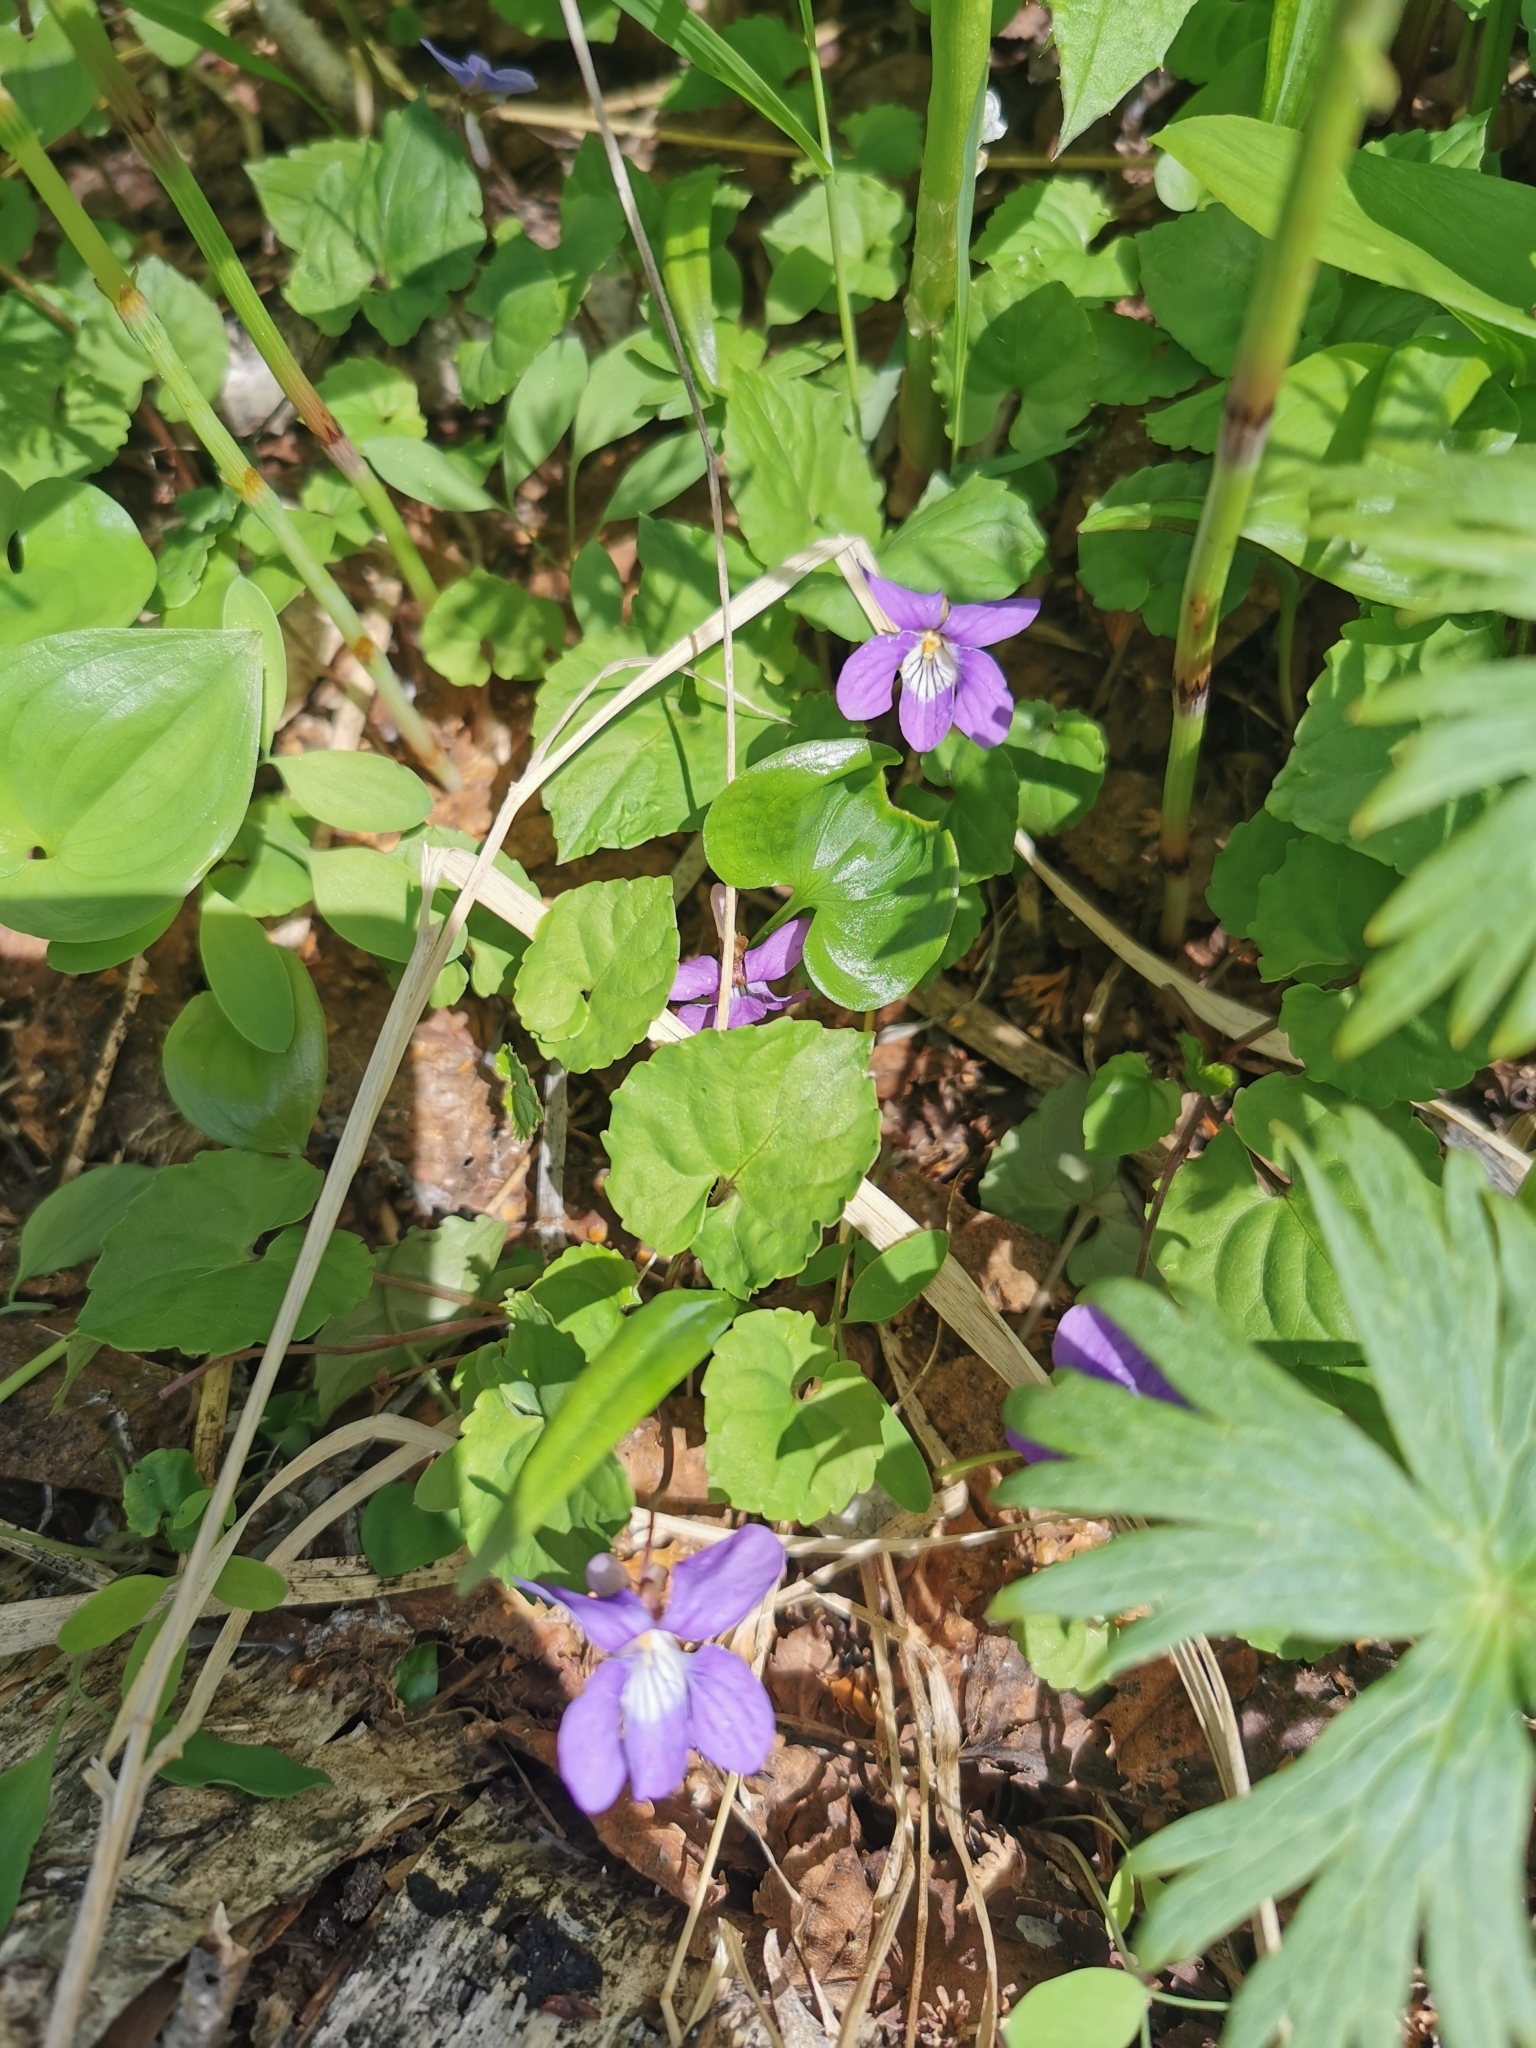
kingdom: Plantae
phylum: Tracheophyta
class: Magnoliopsida
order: Malpighiales
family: Violaceae
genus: Viola
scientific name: Viola selkirkii
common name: Selkirk's violet
